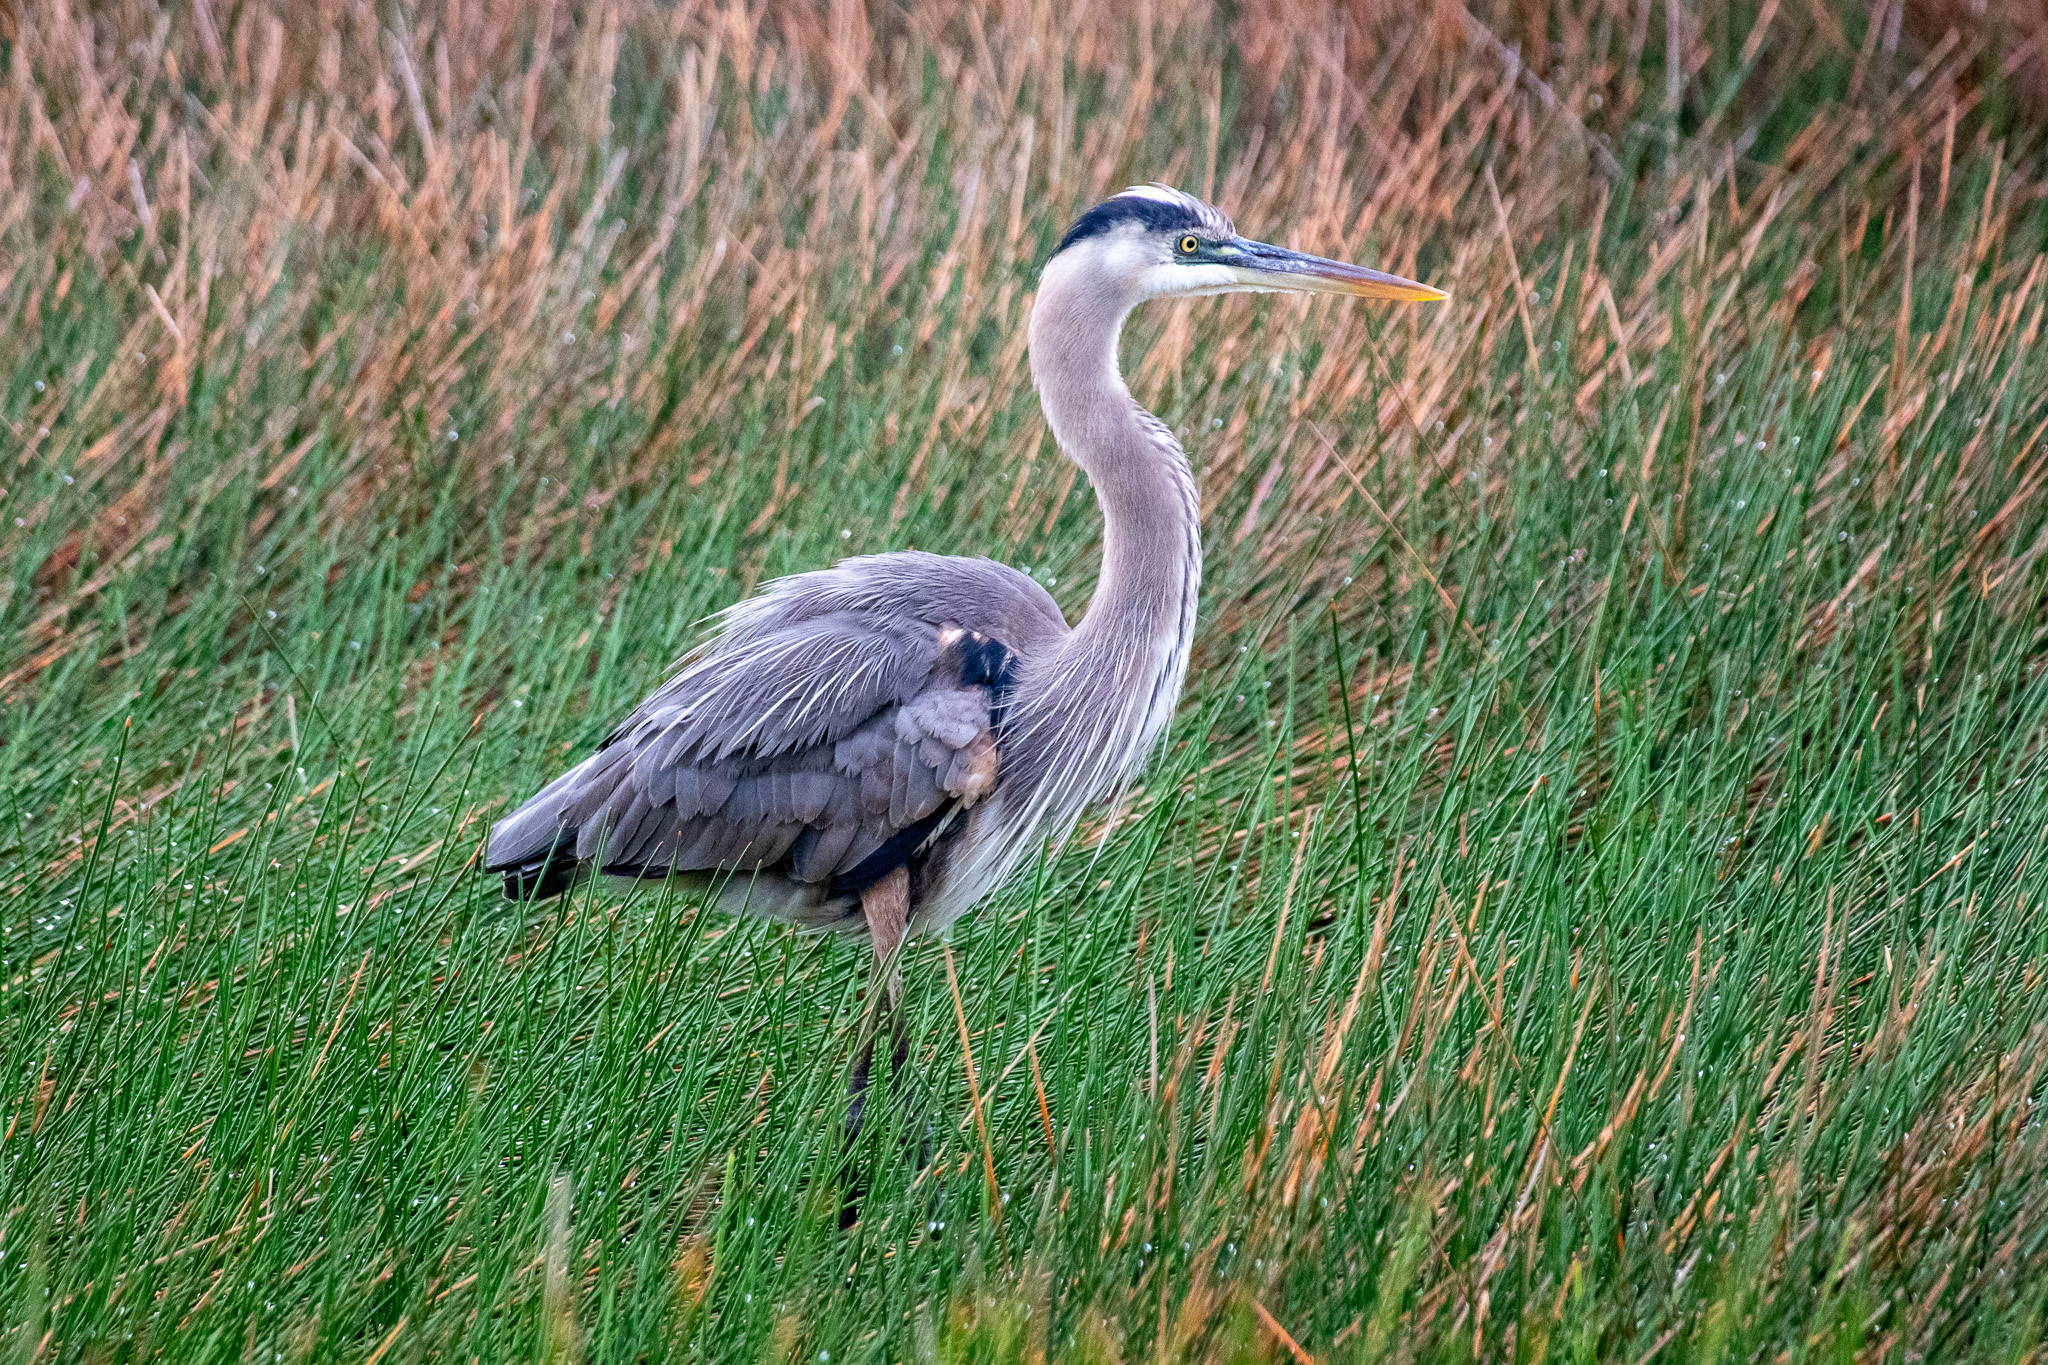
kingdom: Animalia
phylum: Chordata
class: Aves
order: Pelecaniformes
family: Ardeidae
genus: Ardea
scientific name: Ardea herodias
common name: Great blue heron
